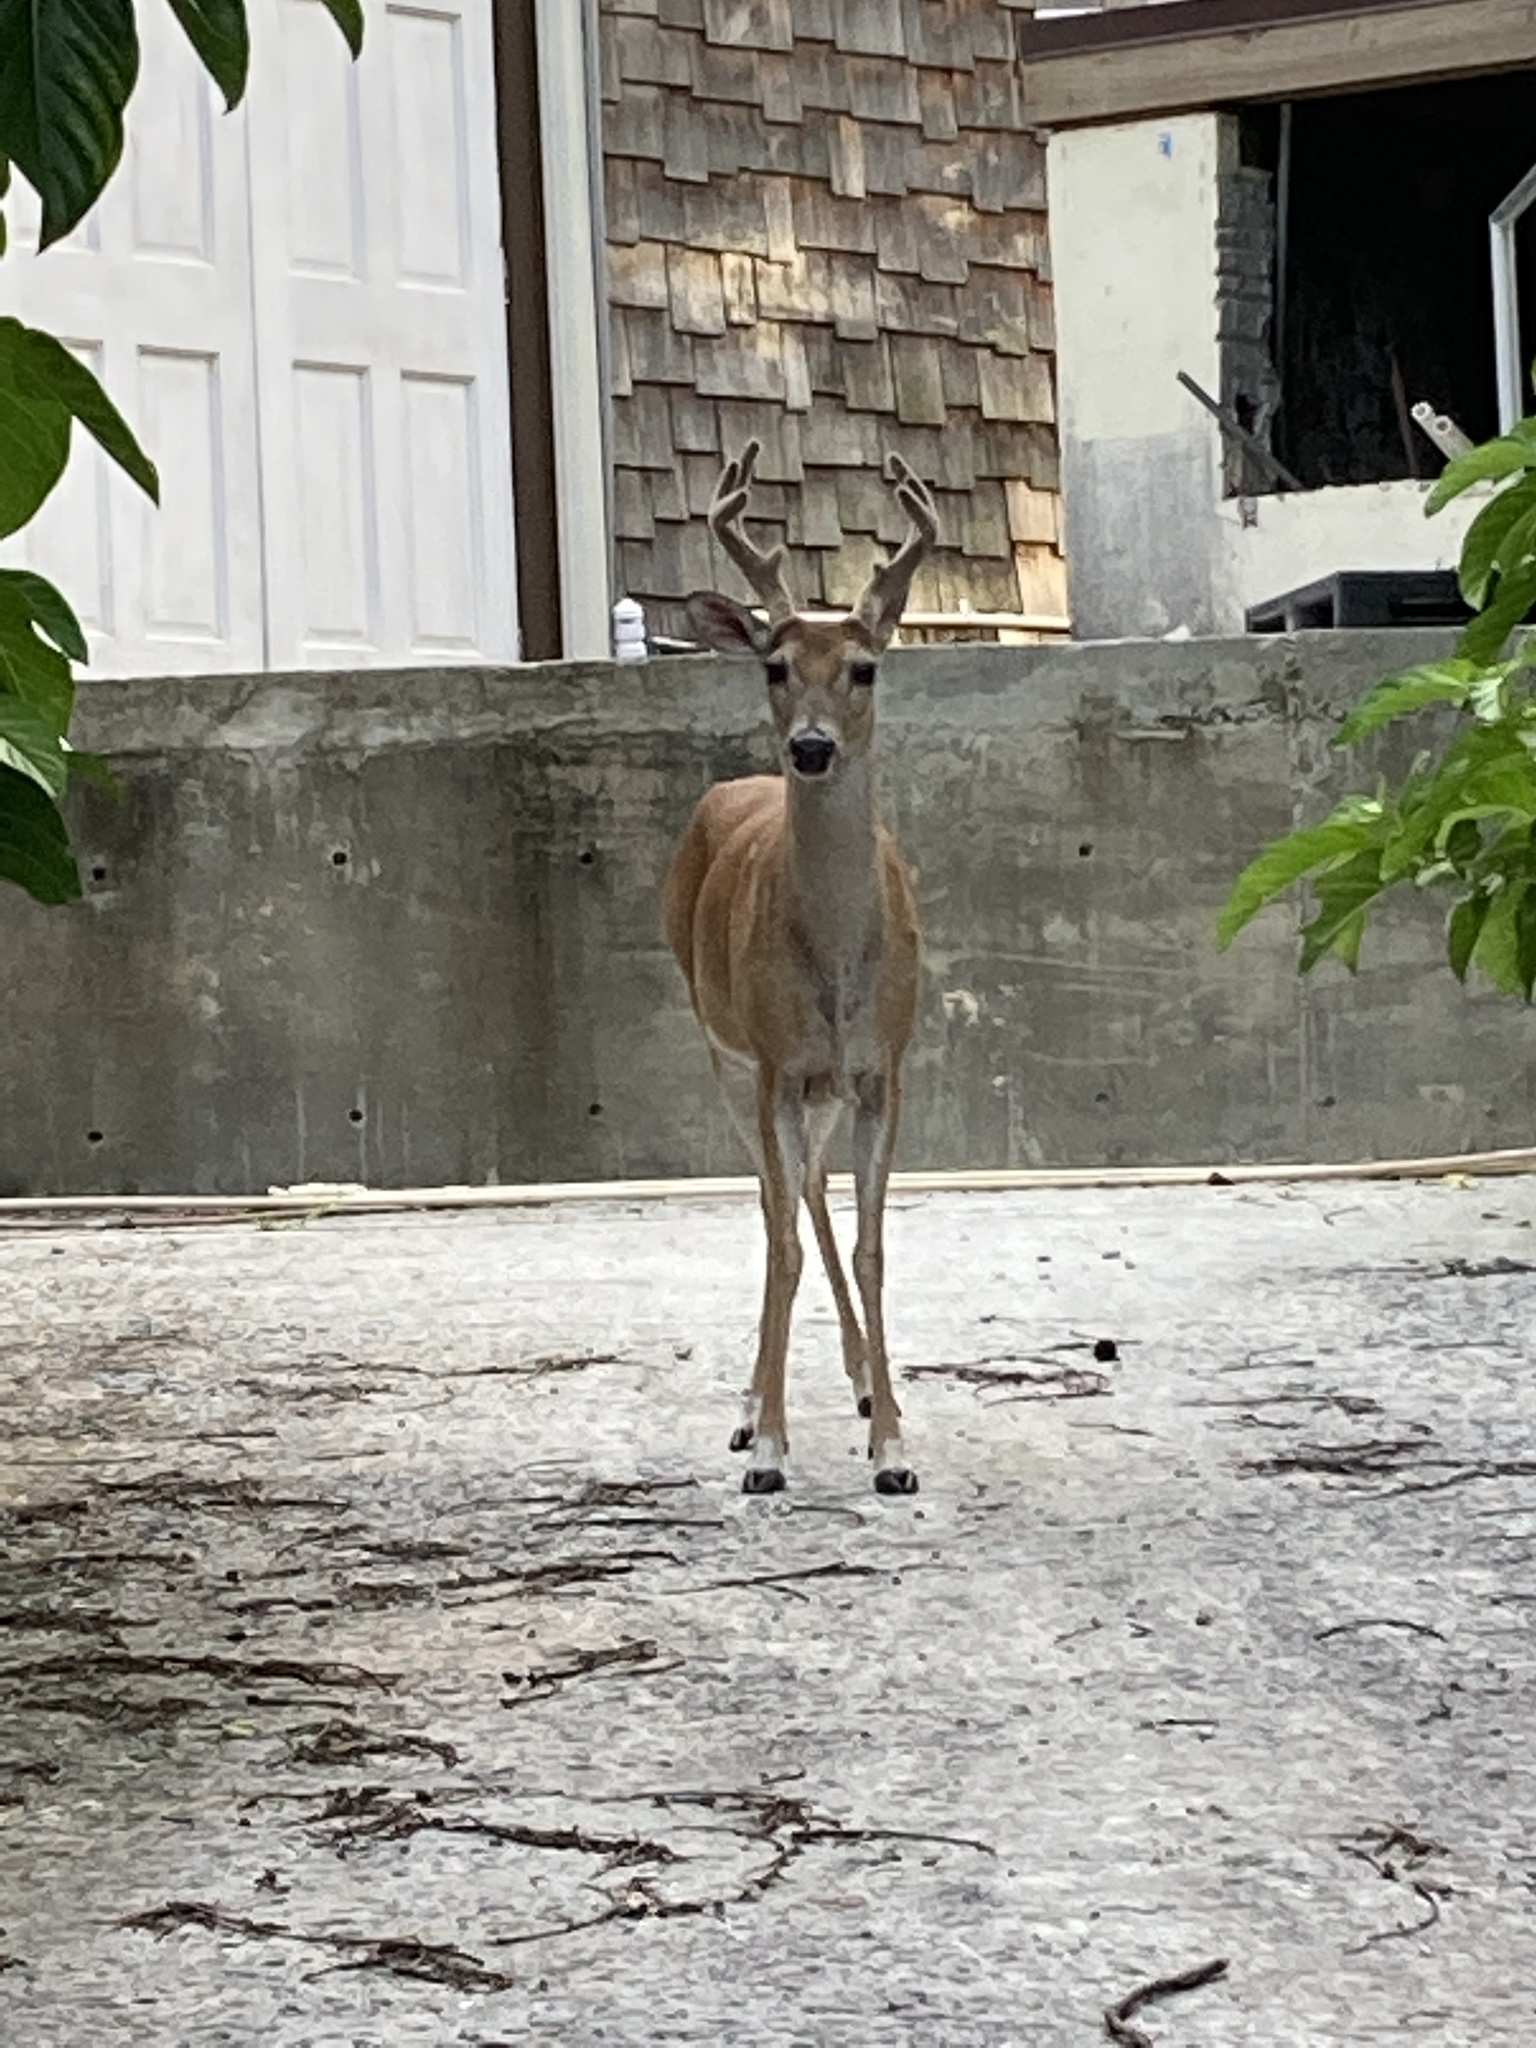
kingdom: Animalia
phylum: Chordata
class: Mammalia
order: Artiodactyla
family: Cervidae
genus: Odocoileus
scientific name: Odocoileus virginianus
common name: White-tailed deer
